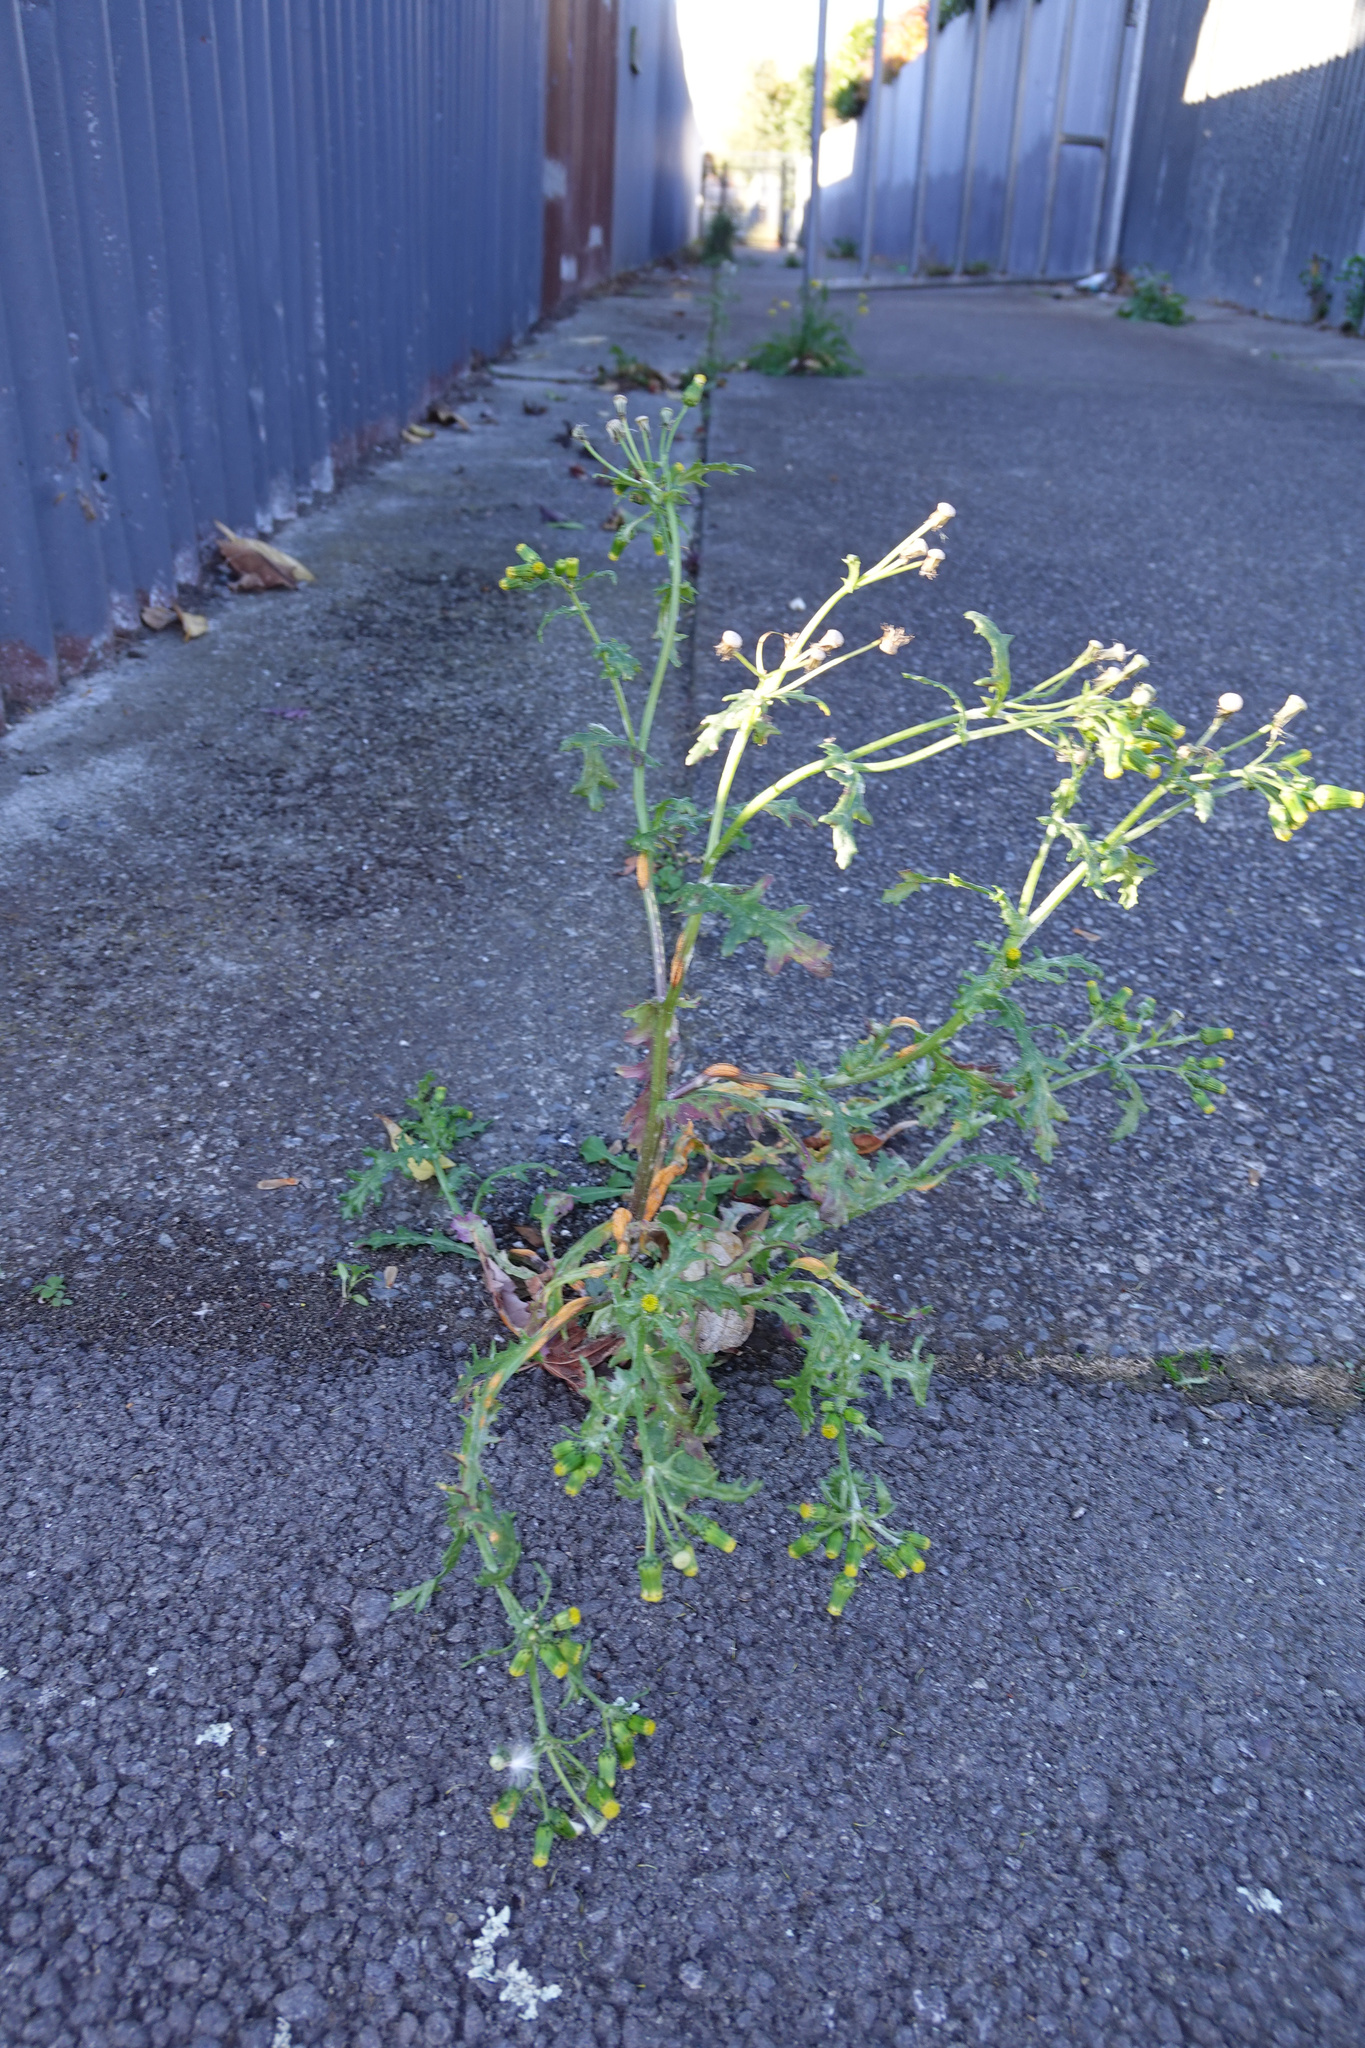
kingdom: Plantae
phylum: Tracheophyta
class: Magnoliopsida
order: Asterales
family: Asteraceae
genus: Senecio
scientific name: Senecio vulgaris
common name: Old-man-in-the-spring
